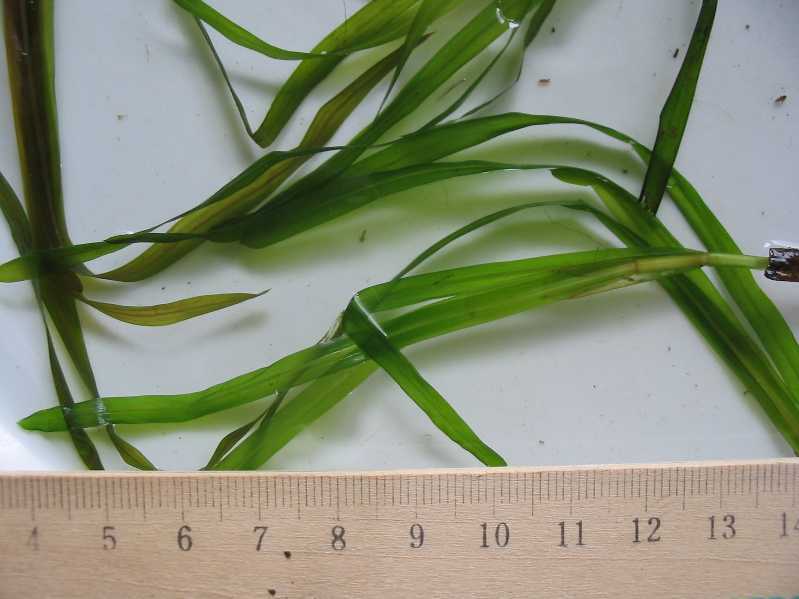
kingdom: Plantae
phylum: Tracheophyta
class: Liliopsida
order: Alismatales
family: Potamogetonaceae
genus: Potamogeton
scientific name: Potamogeton compressus
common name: Grass-wrack pondweed
